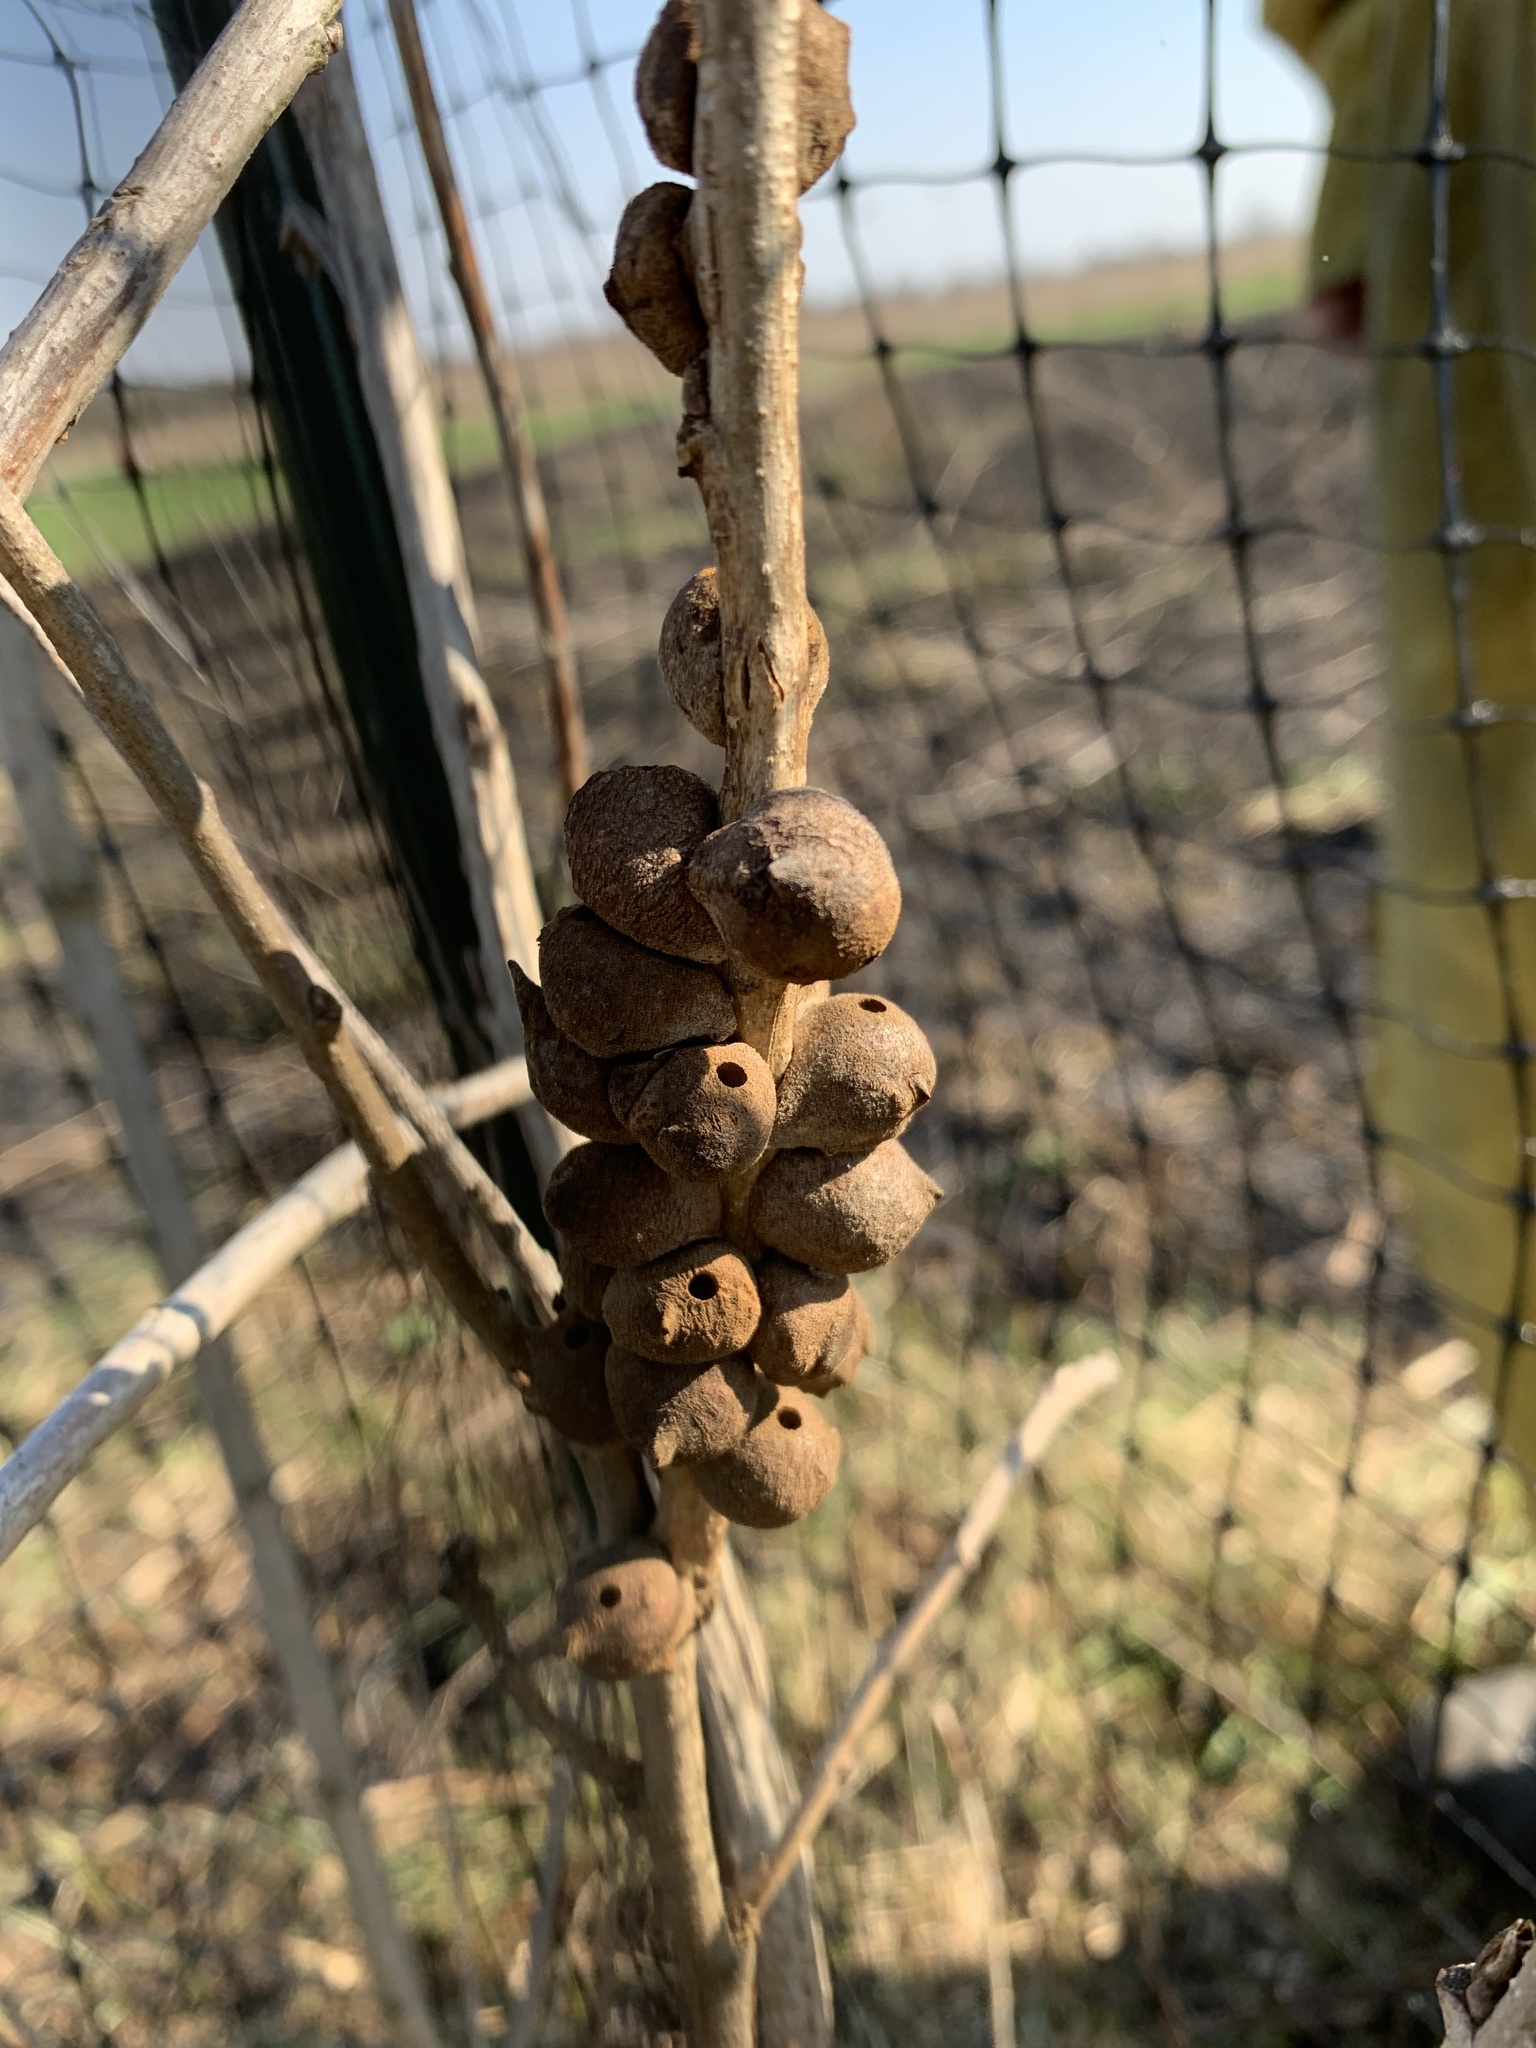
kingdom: Animalia
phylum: Arthropoda
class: Insecta
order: Hymenoptera
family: Cynipidae
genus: Disholcaspis
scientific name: Disholcaspis
